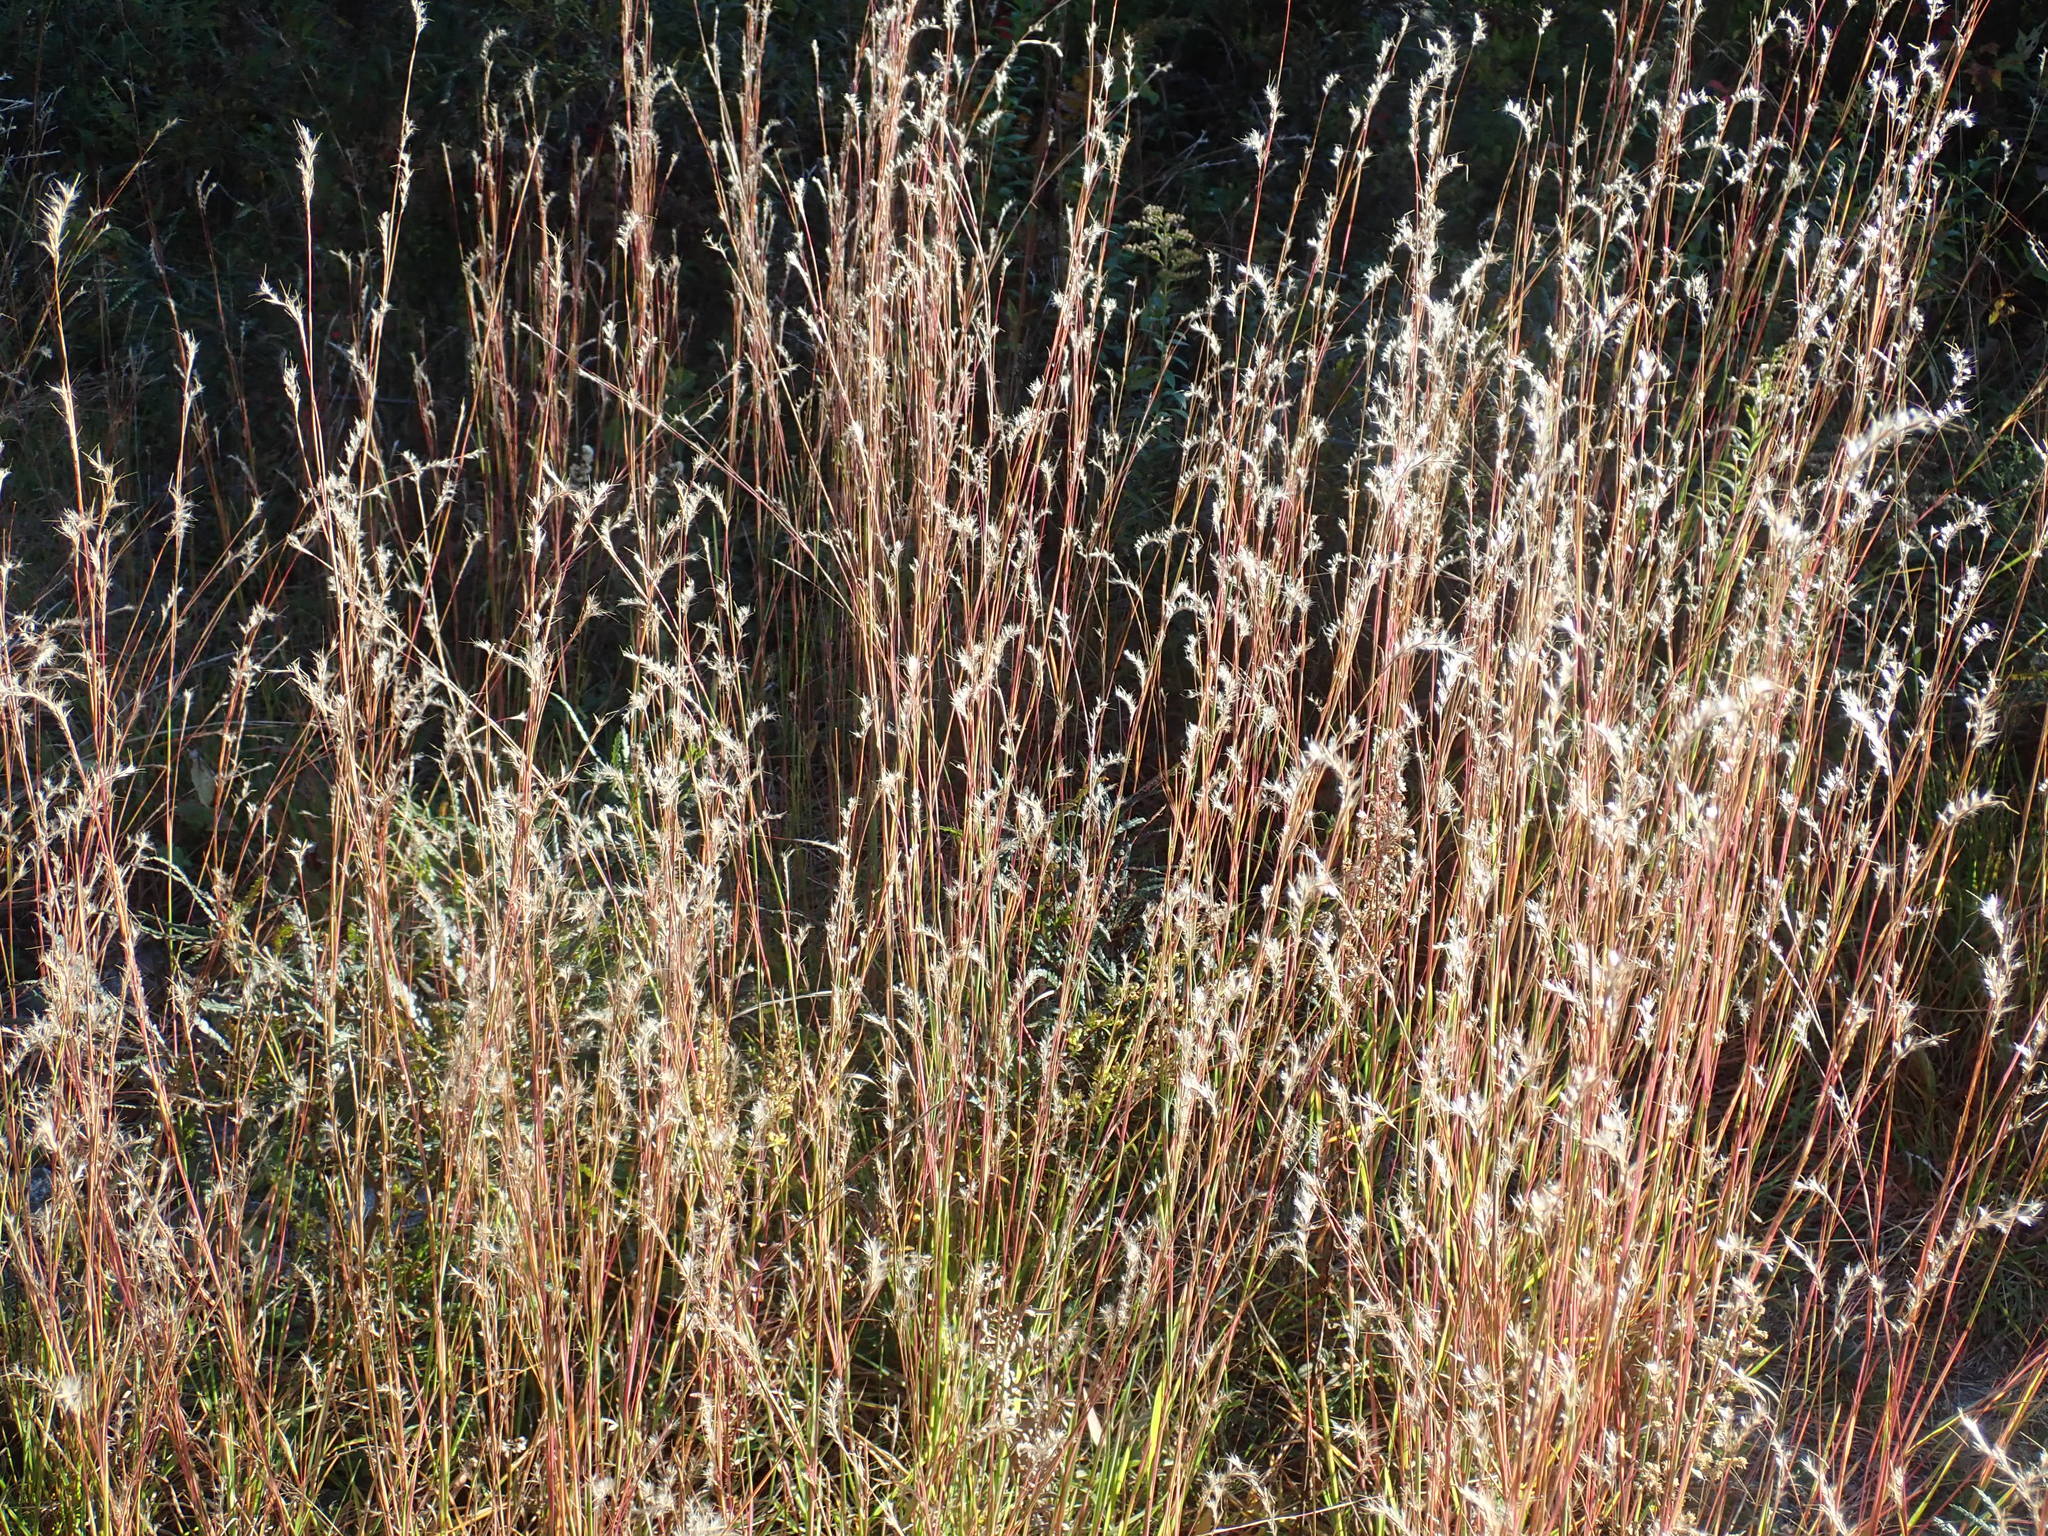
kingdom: Plantae
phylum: Tracheophyta
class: Liliopsida
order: Poales
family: Poaceae
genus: Schizachyrium
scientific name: Schizachyrium scoparium
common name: Little bluestem
